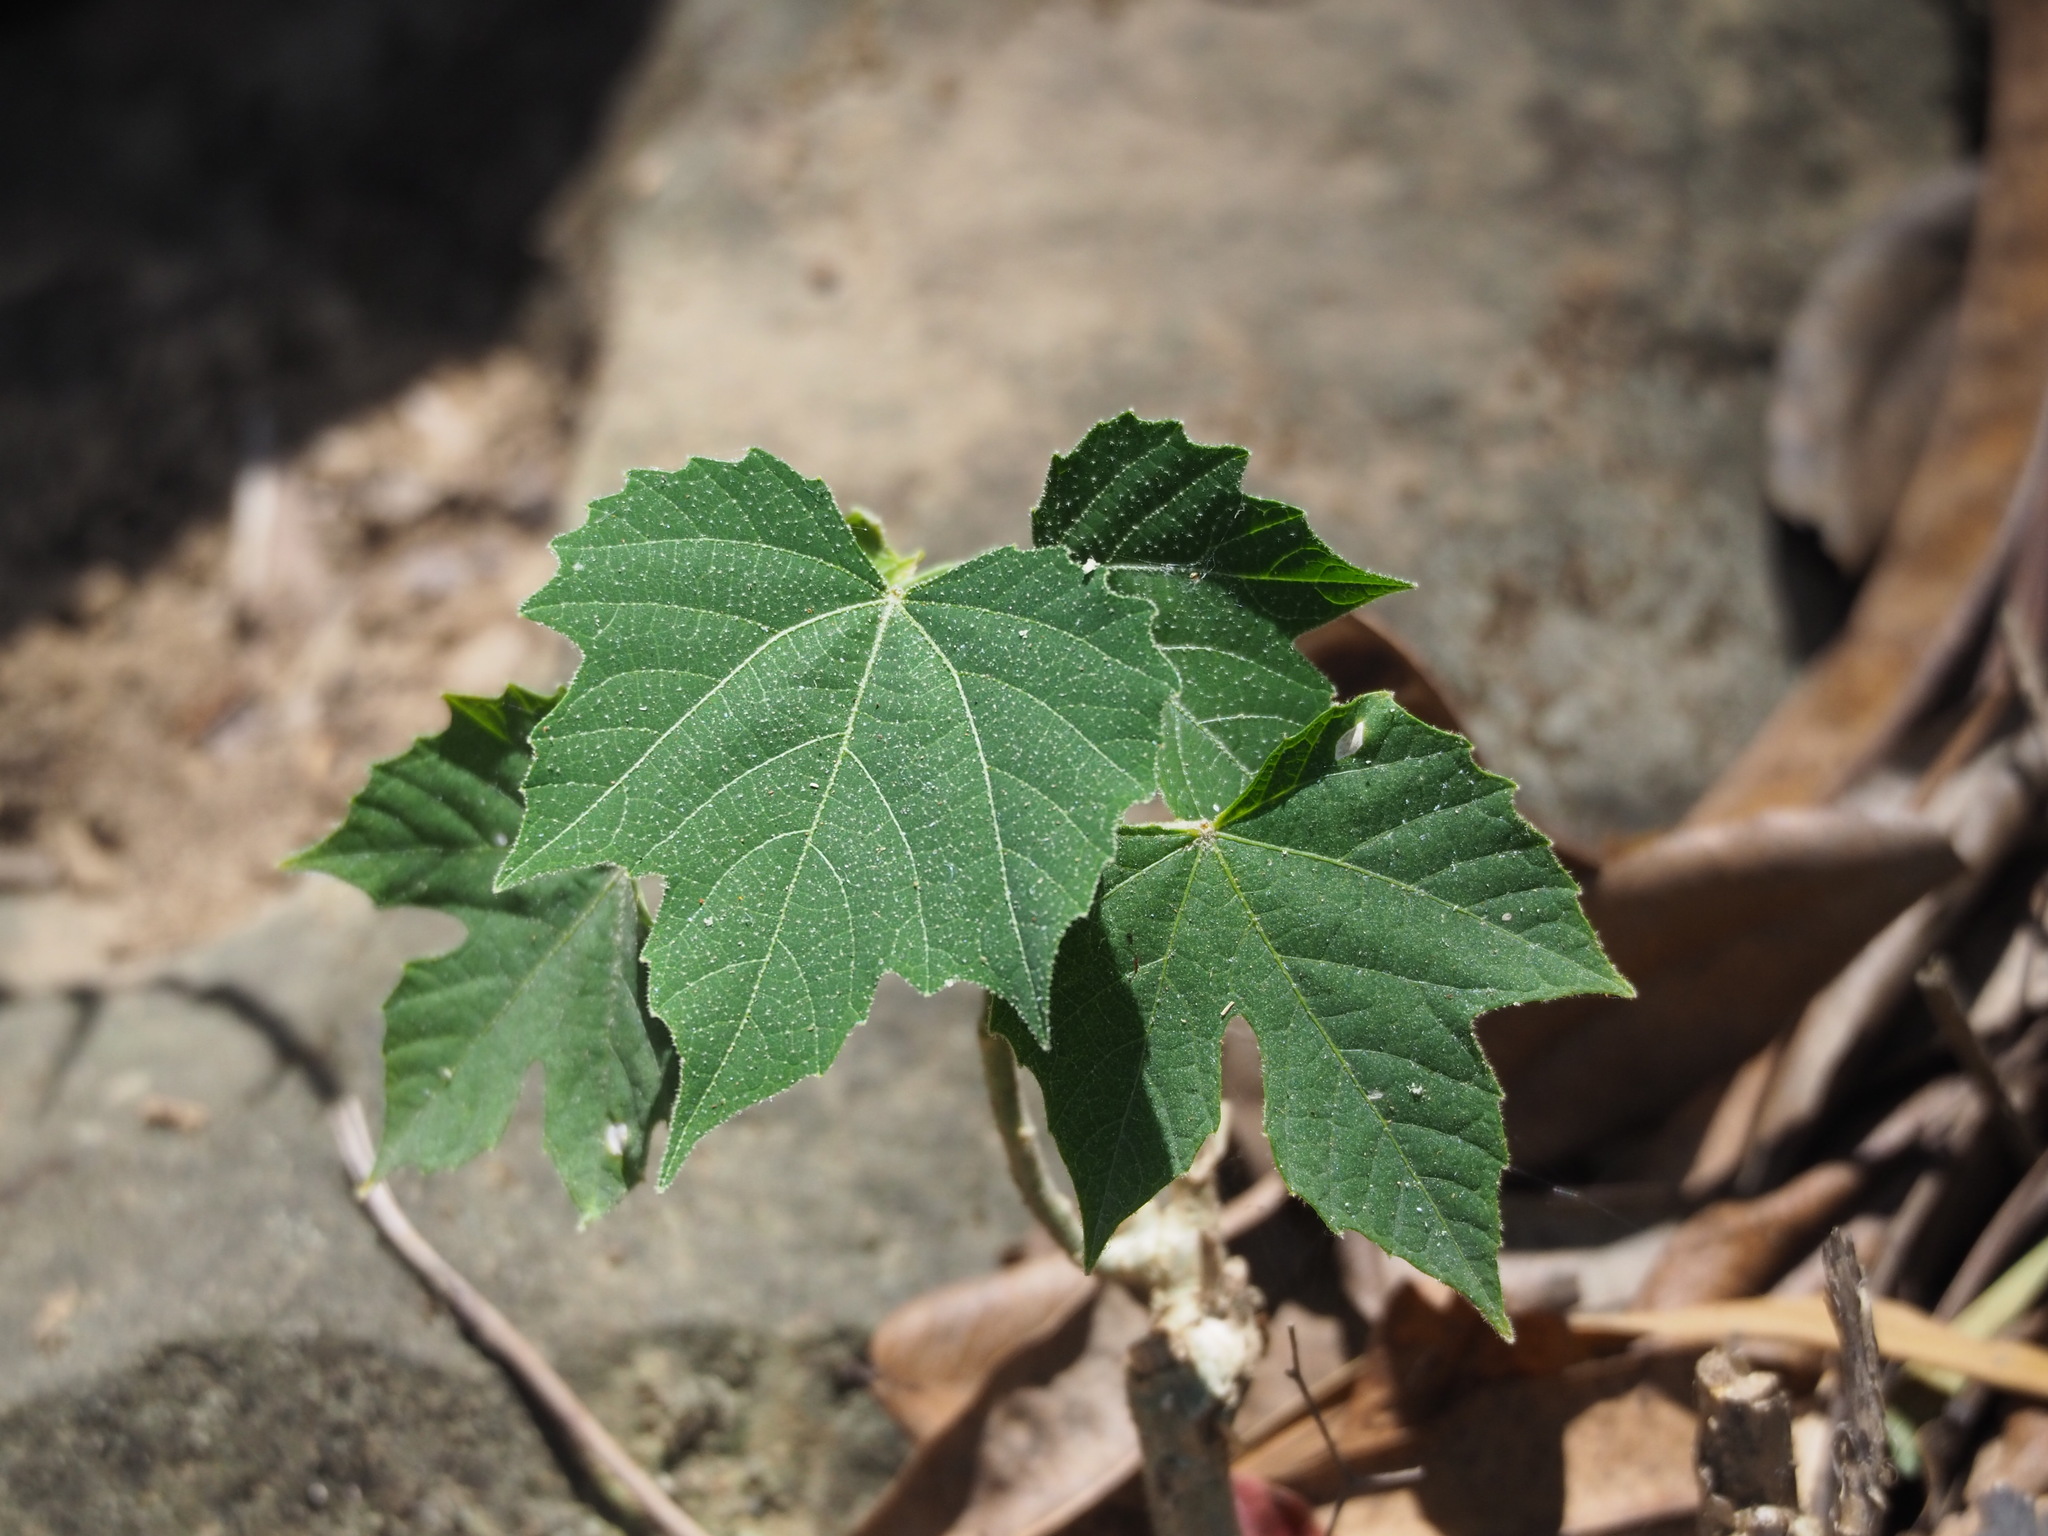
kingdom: Plantae
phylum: Tracheophyta
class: Magnoliopsida
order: Malpighiales
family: Euphorbiaceae
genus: Melanolepis
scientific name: Melanolepis multiglandulosa
